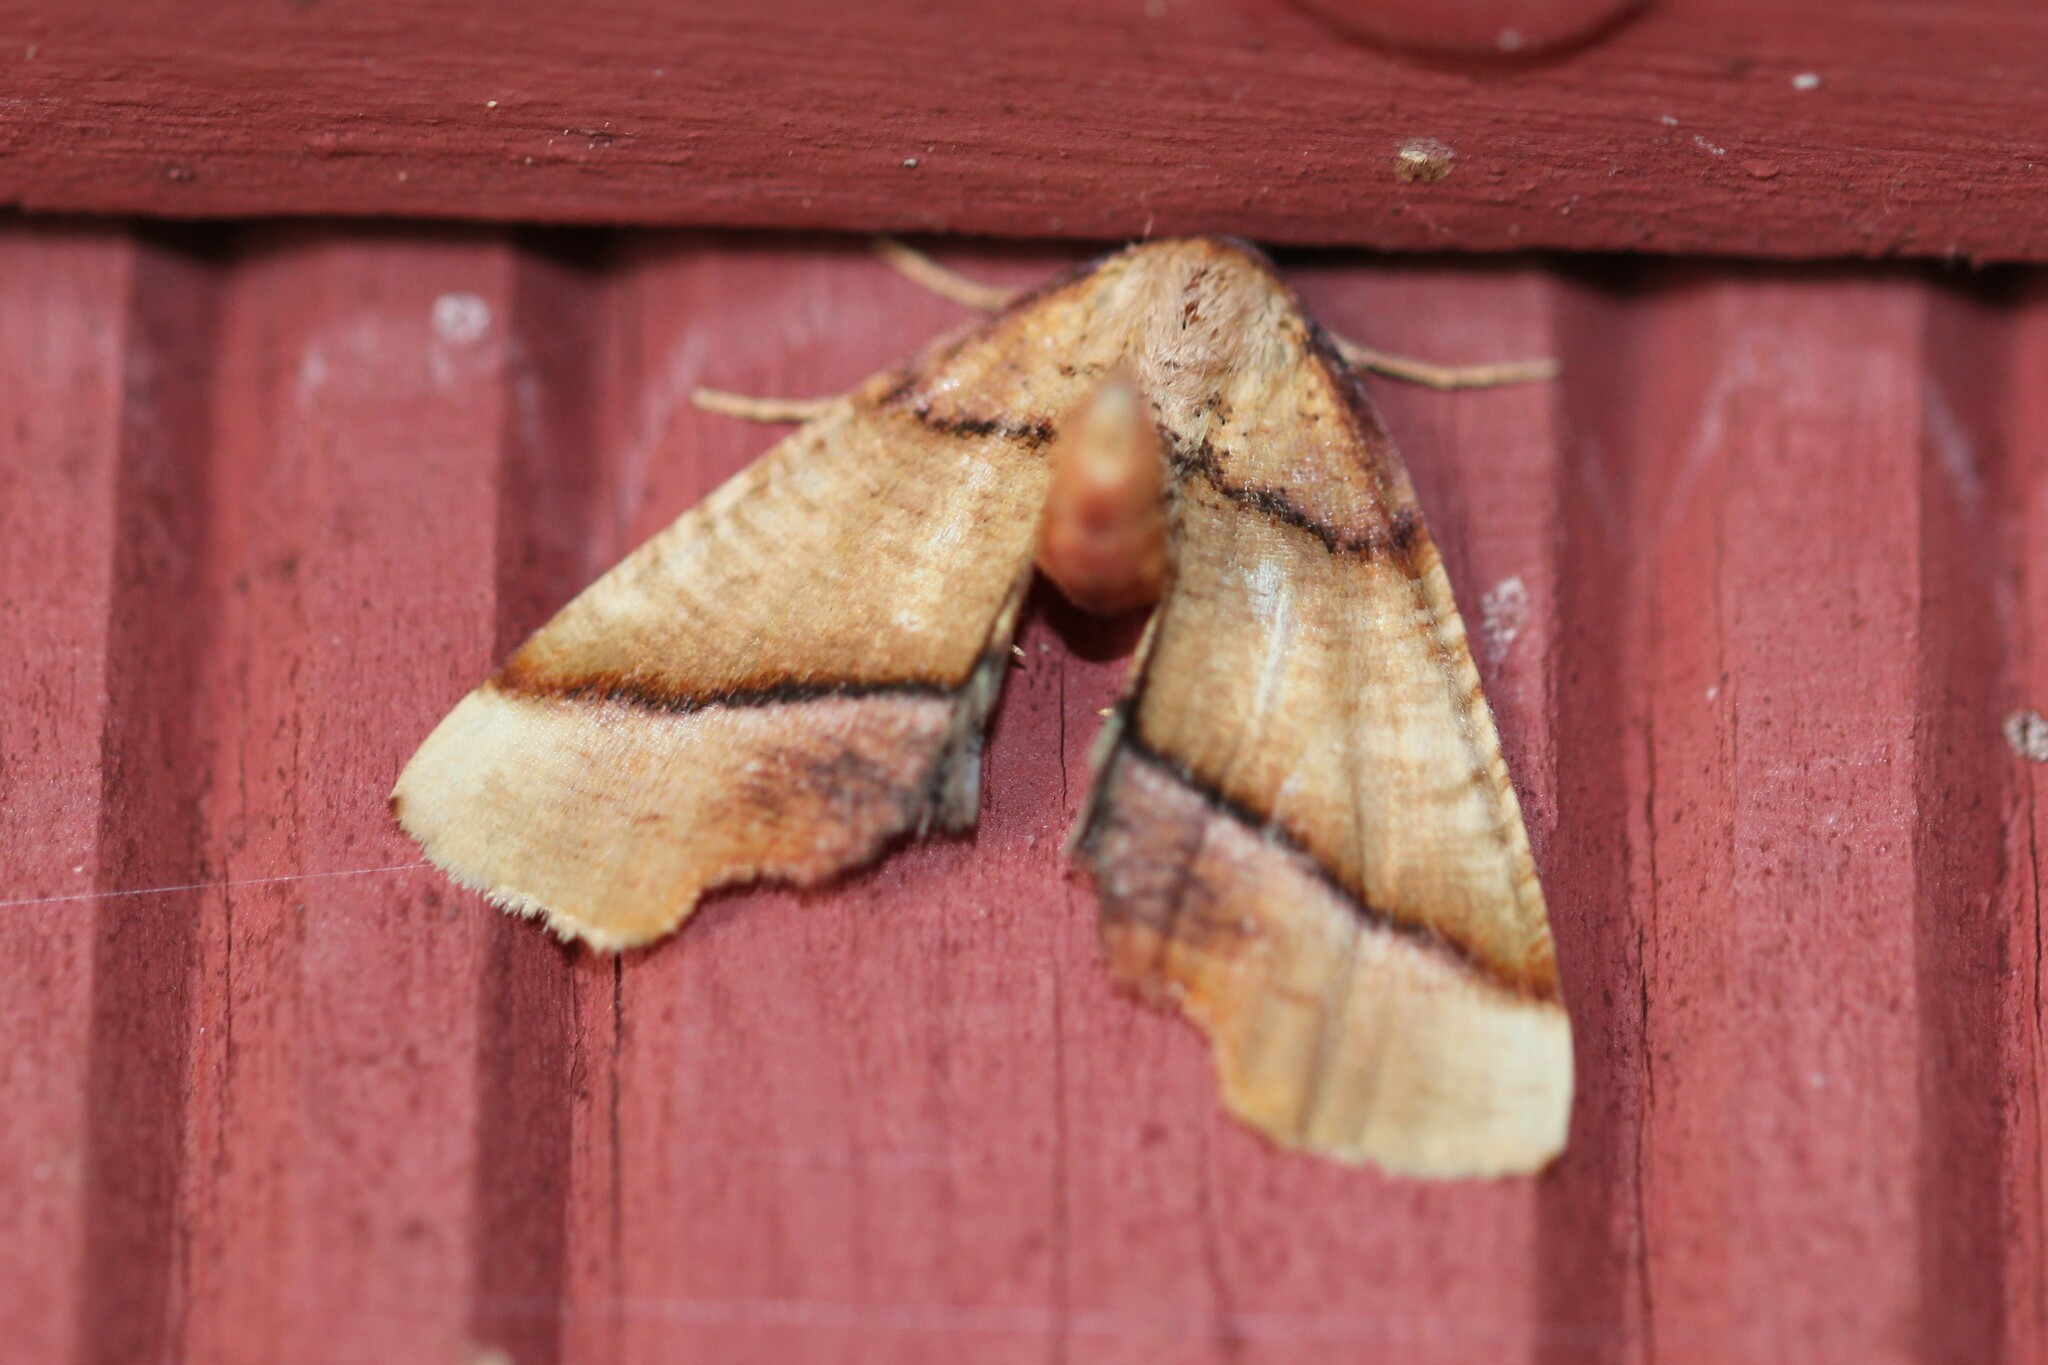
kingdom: Animalia
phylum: Arthropoda
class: Insecta
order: Lepidoptera
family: Geometridae
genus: Plagodis
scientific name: Plagodis phlogosaria
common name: Straight-lined plagodis
